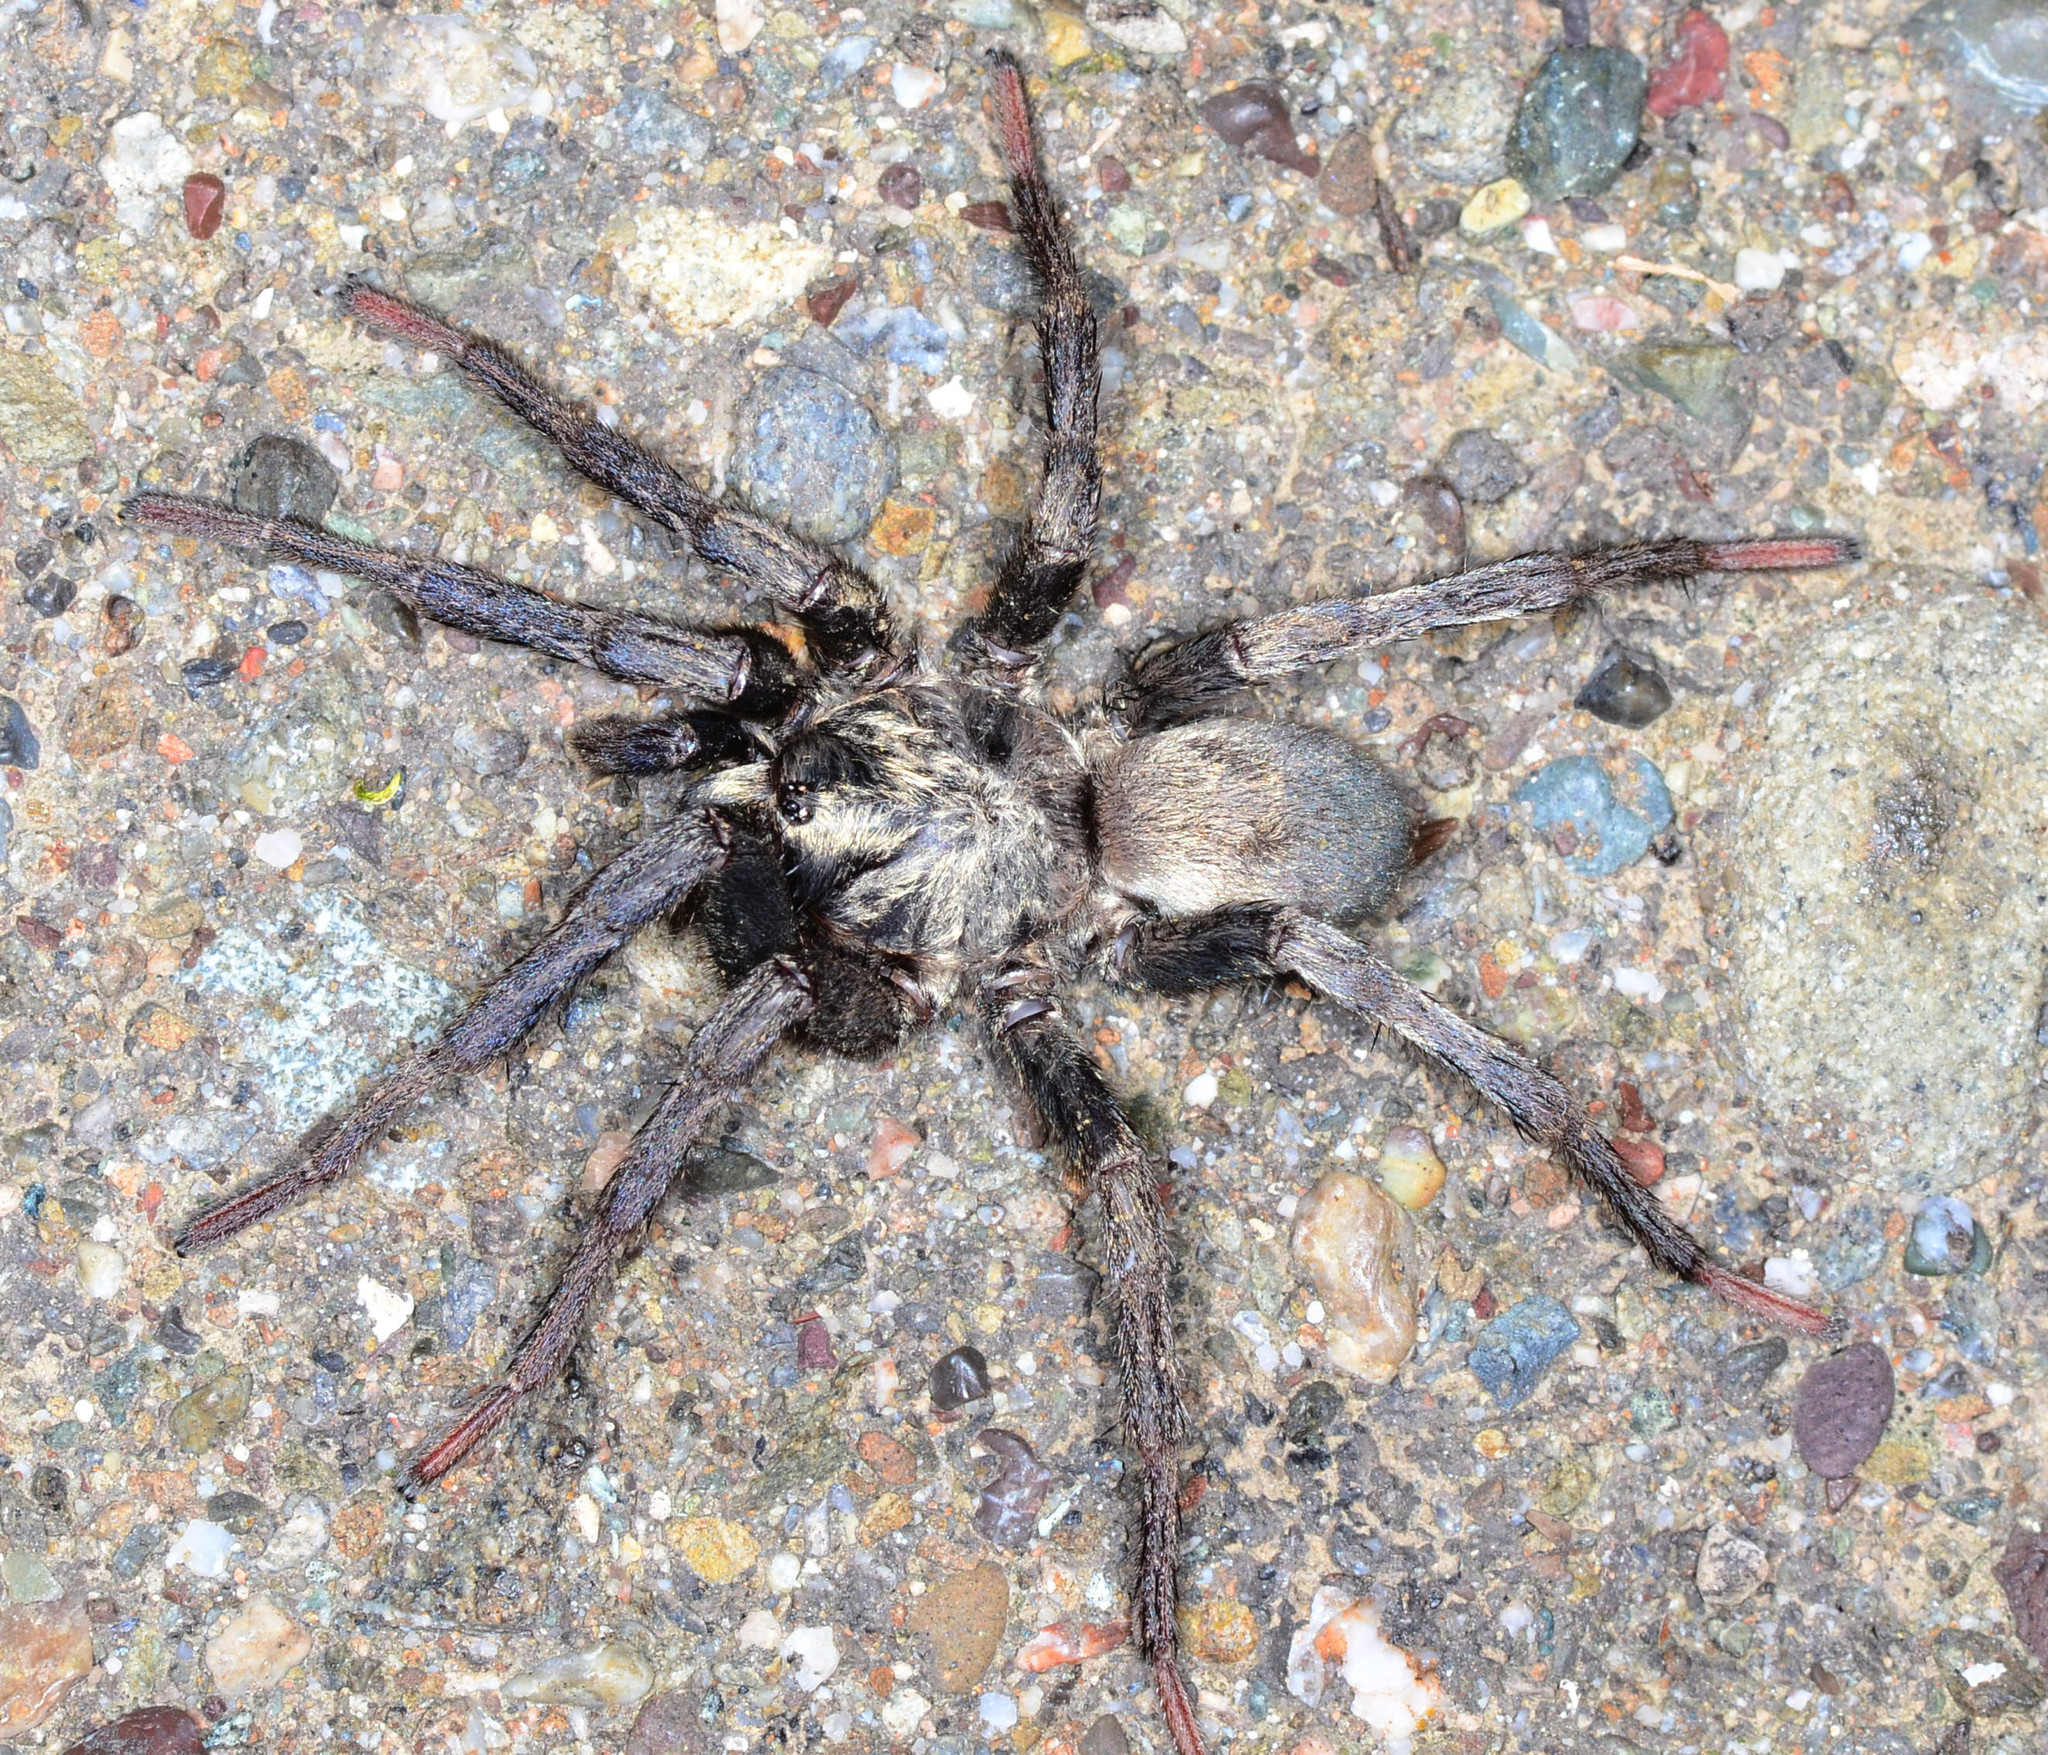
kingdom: Animalia
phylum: Arthropoda
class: Arachnida
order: Araneae
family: Nemesiidae
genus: Calisoga
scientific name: Calisoga longitarsis
